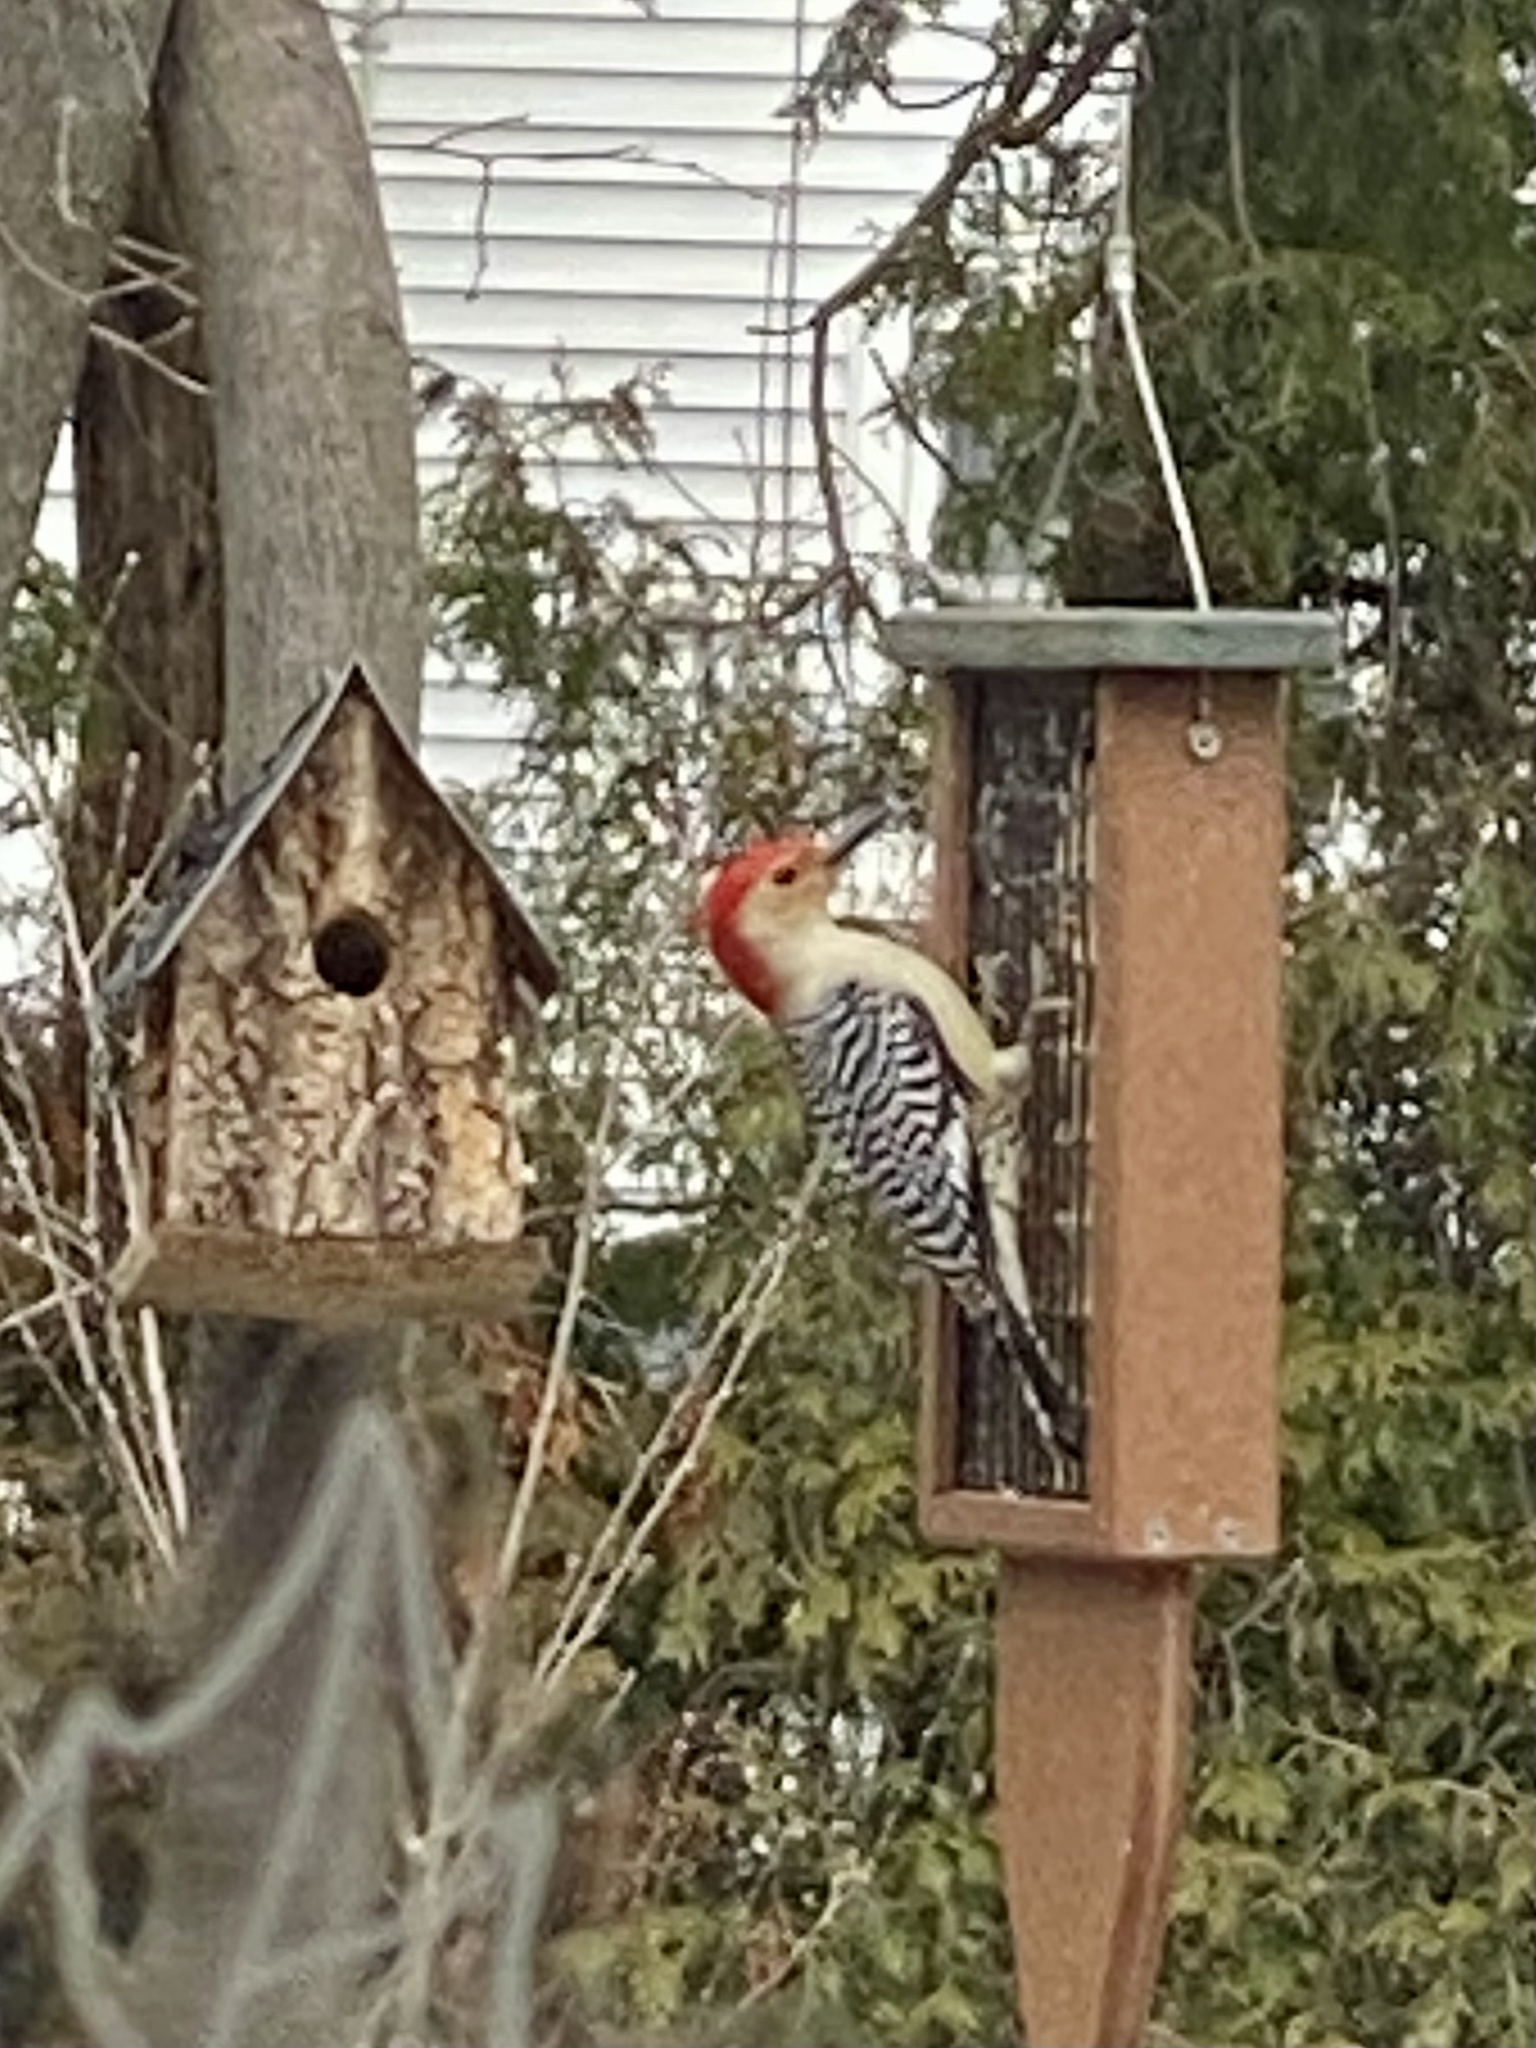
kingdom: Animalia
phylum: Chordata
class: Aves
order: Piciformes
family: Picidae
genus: Melanerpes
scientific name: Melanerpes carolinus
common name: Red-bellied woodpecker
